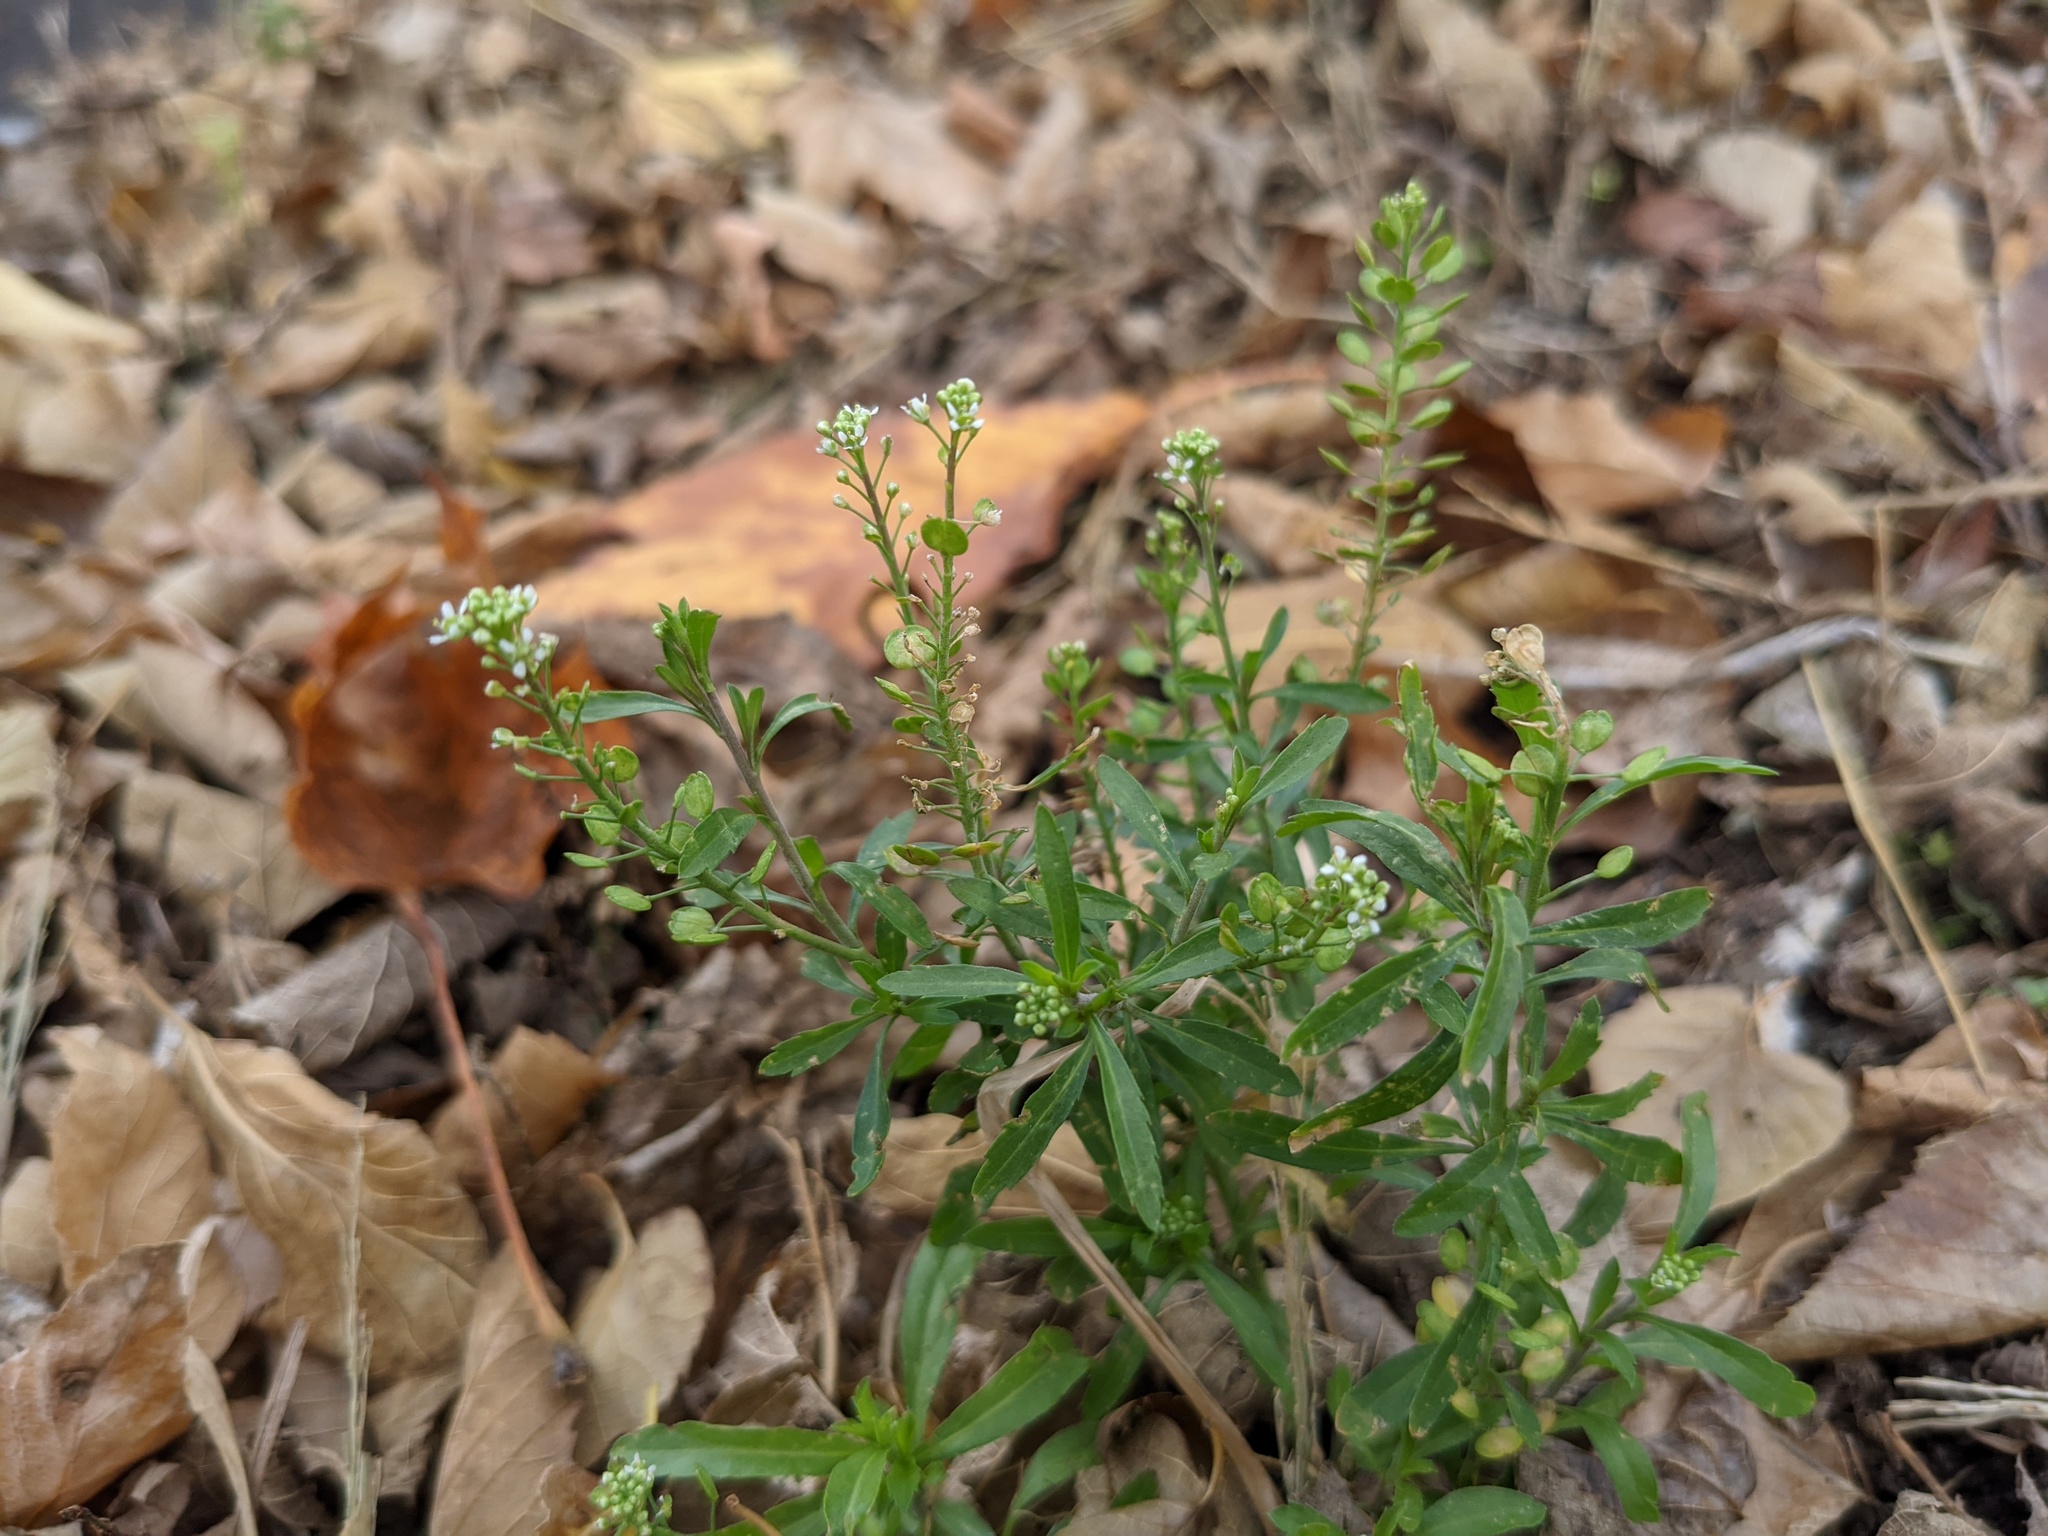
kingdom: Plantae
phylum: Tracheophyta
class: Magnoliopsida
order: Brassicales
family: Brassicaceae
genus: Lepidium
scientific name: Lepidium virginicum
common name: Least pepperwort
